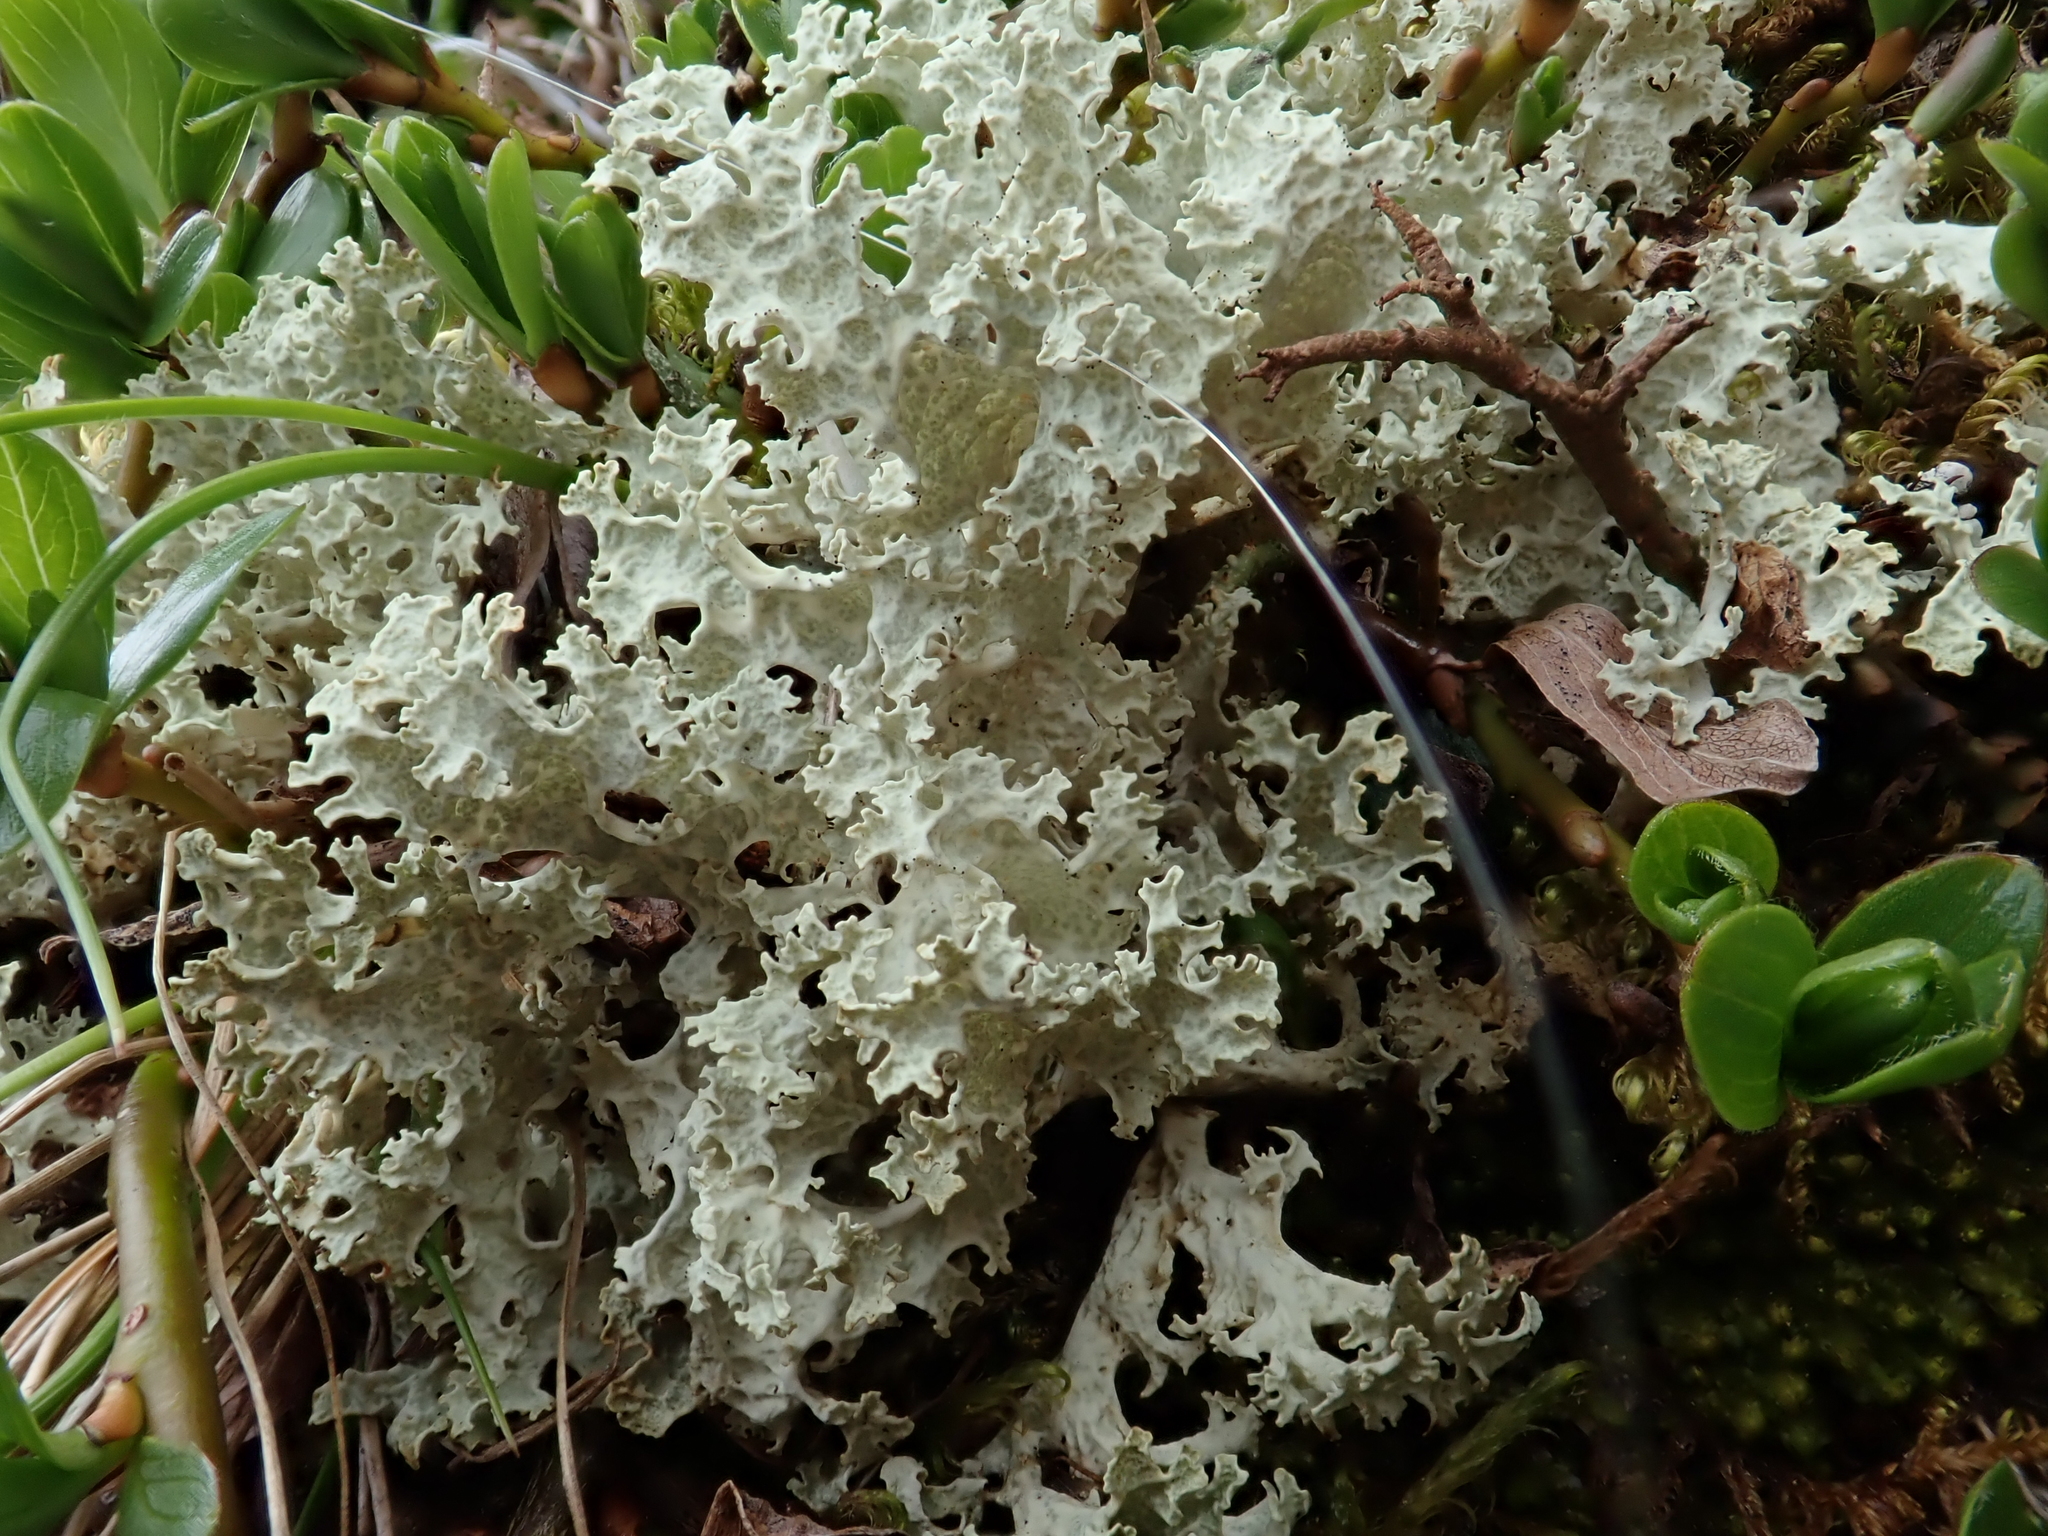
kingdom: Fungi
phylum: Ascomycota
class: Lecanoromycetes
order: Lecanorales
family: Parmeliaceae
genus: Nephromopsis
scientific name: Nephromopsis nivalis
